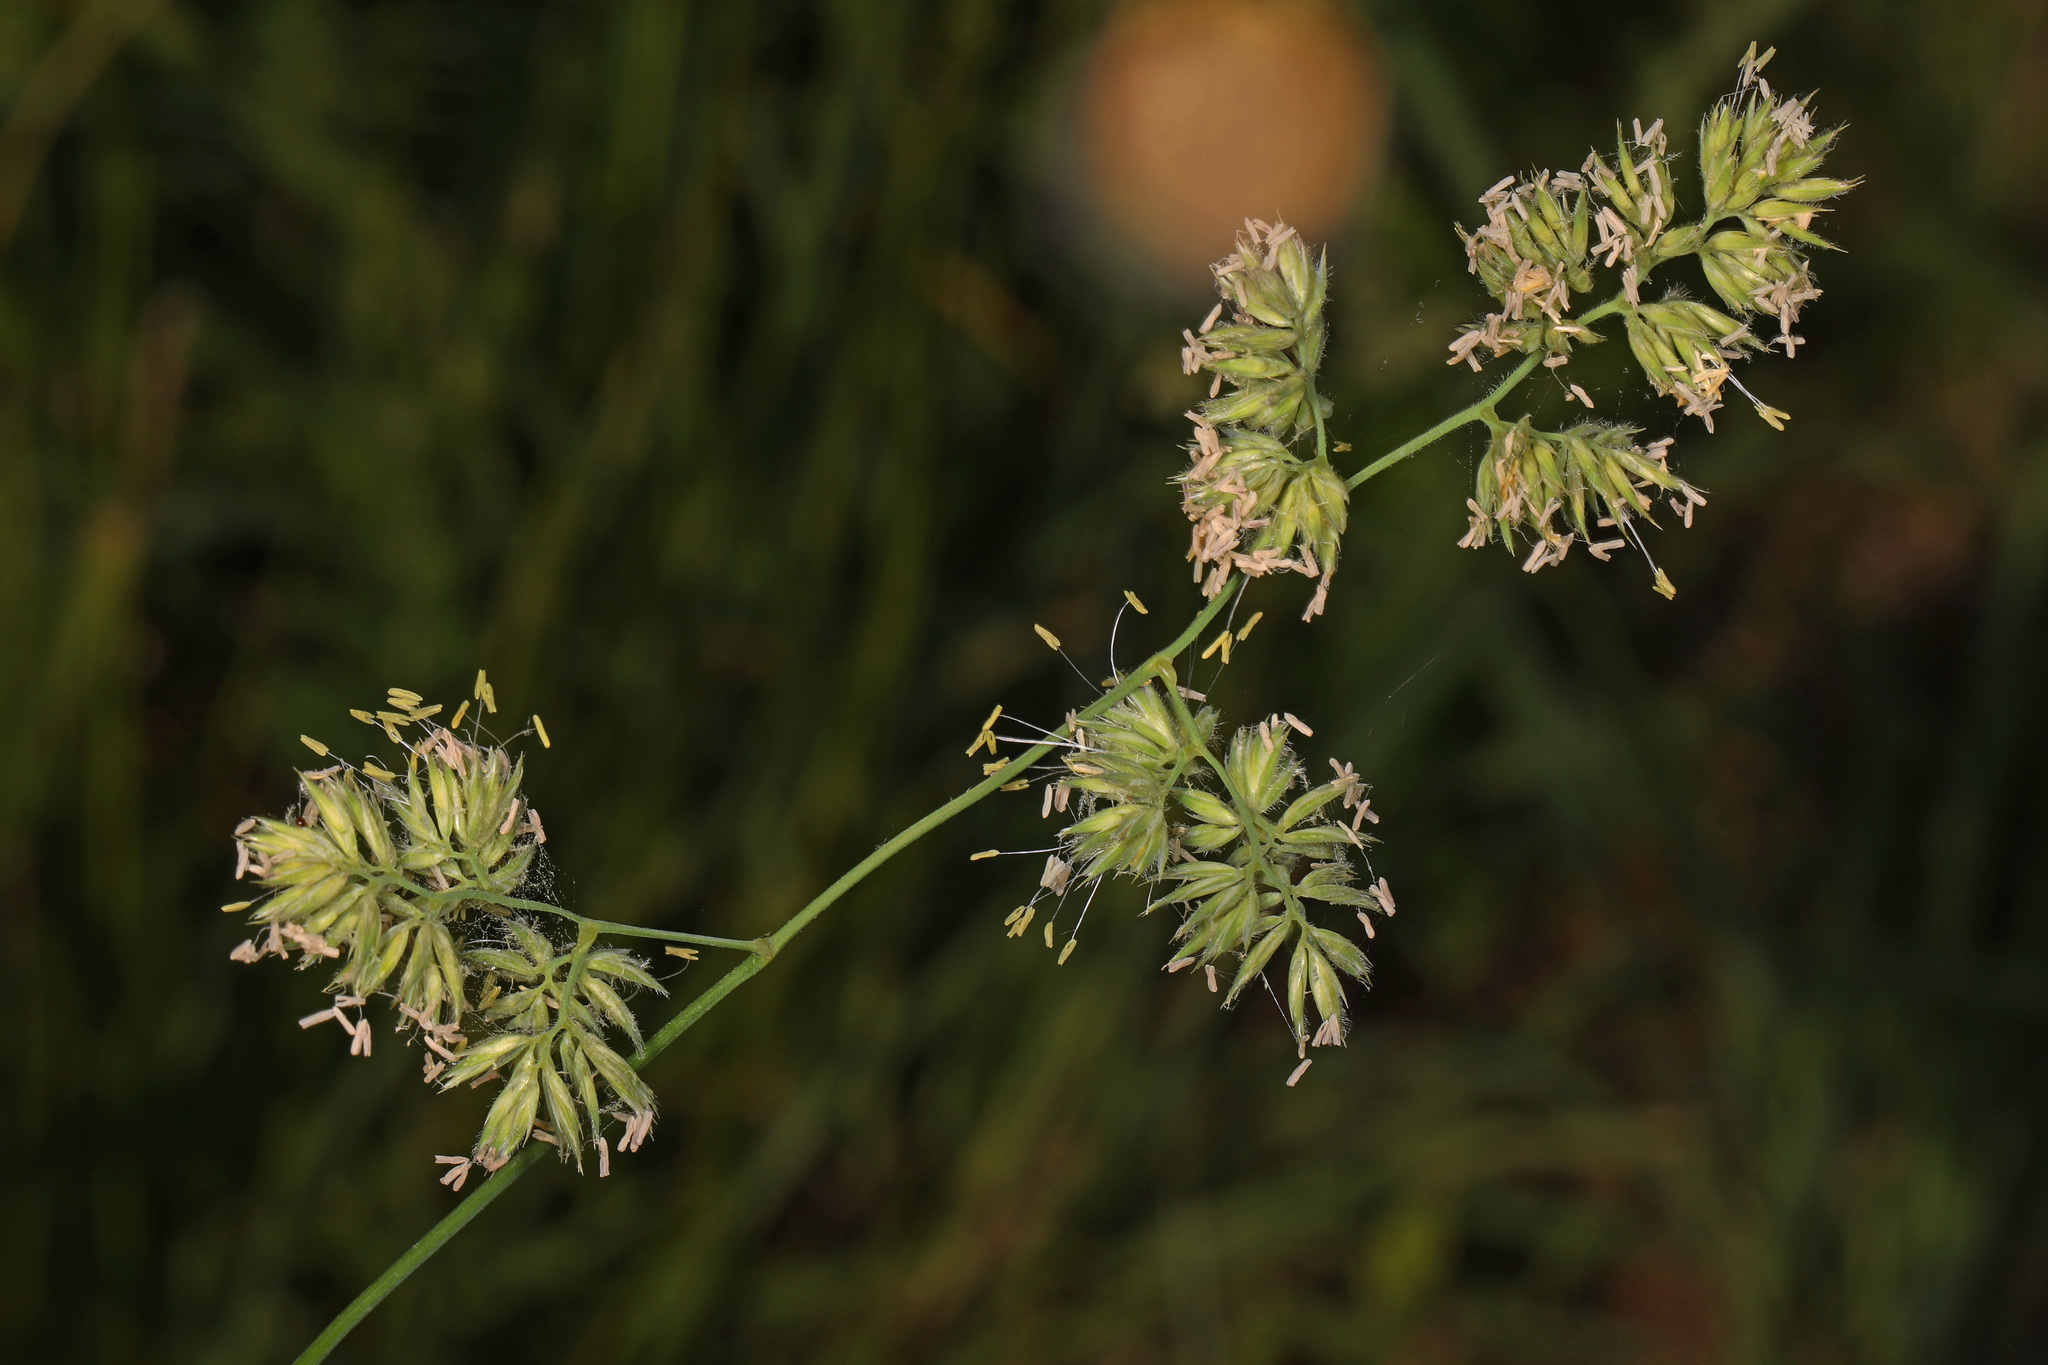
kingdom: Plantae
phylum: Tracheophyta
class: Liliopsida
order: Poales
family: Poaceae
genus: Dactylis
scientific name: Dactylis glomerata
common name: Orchardgrass
